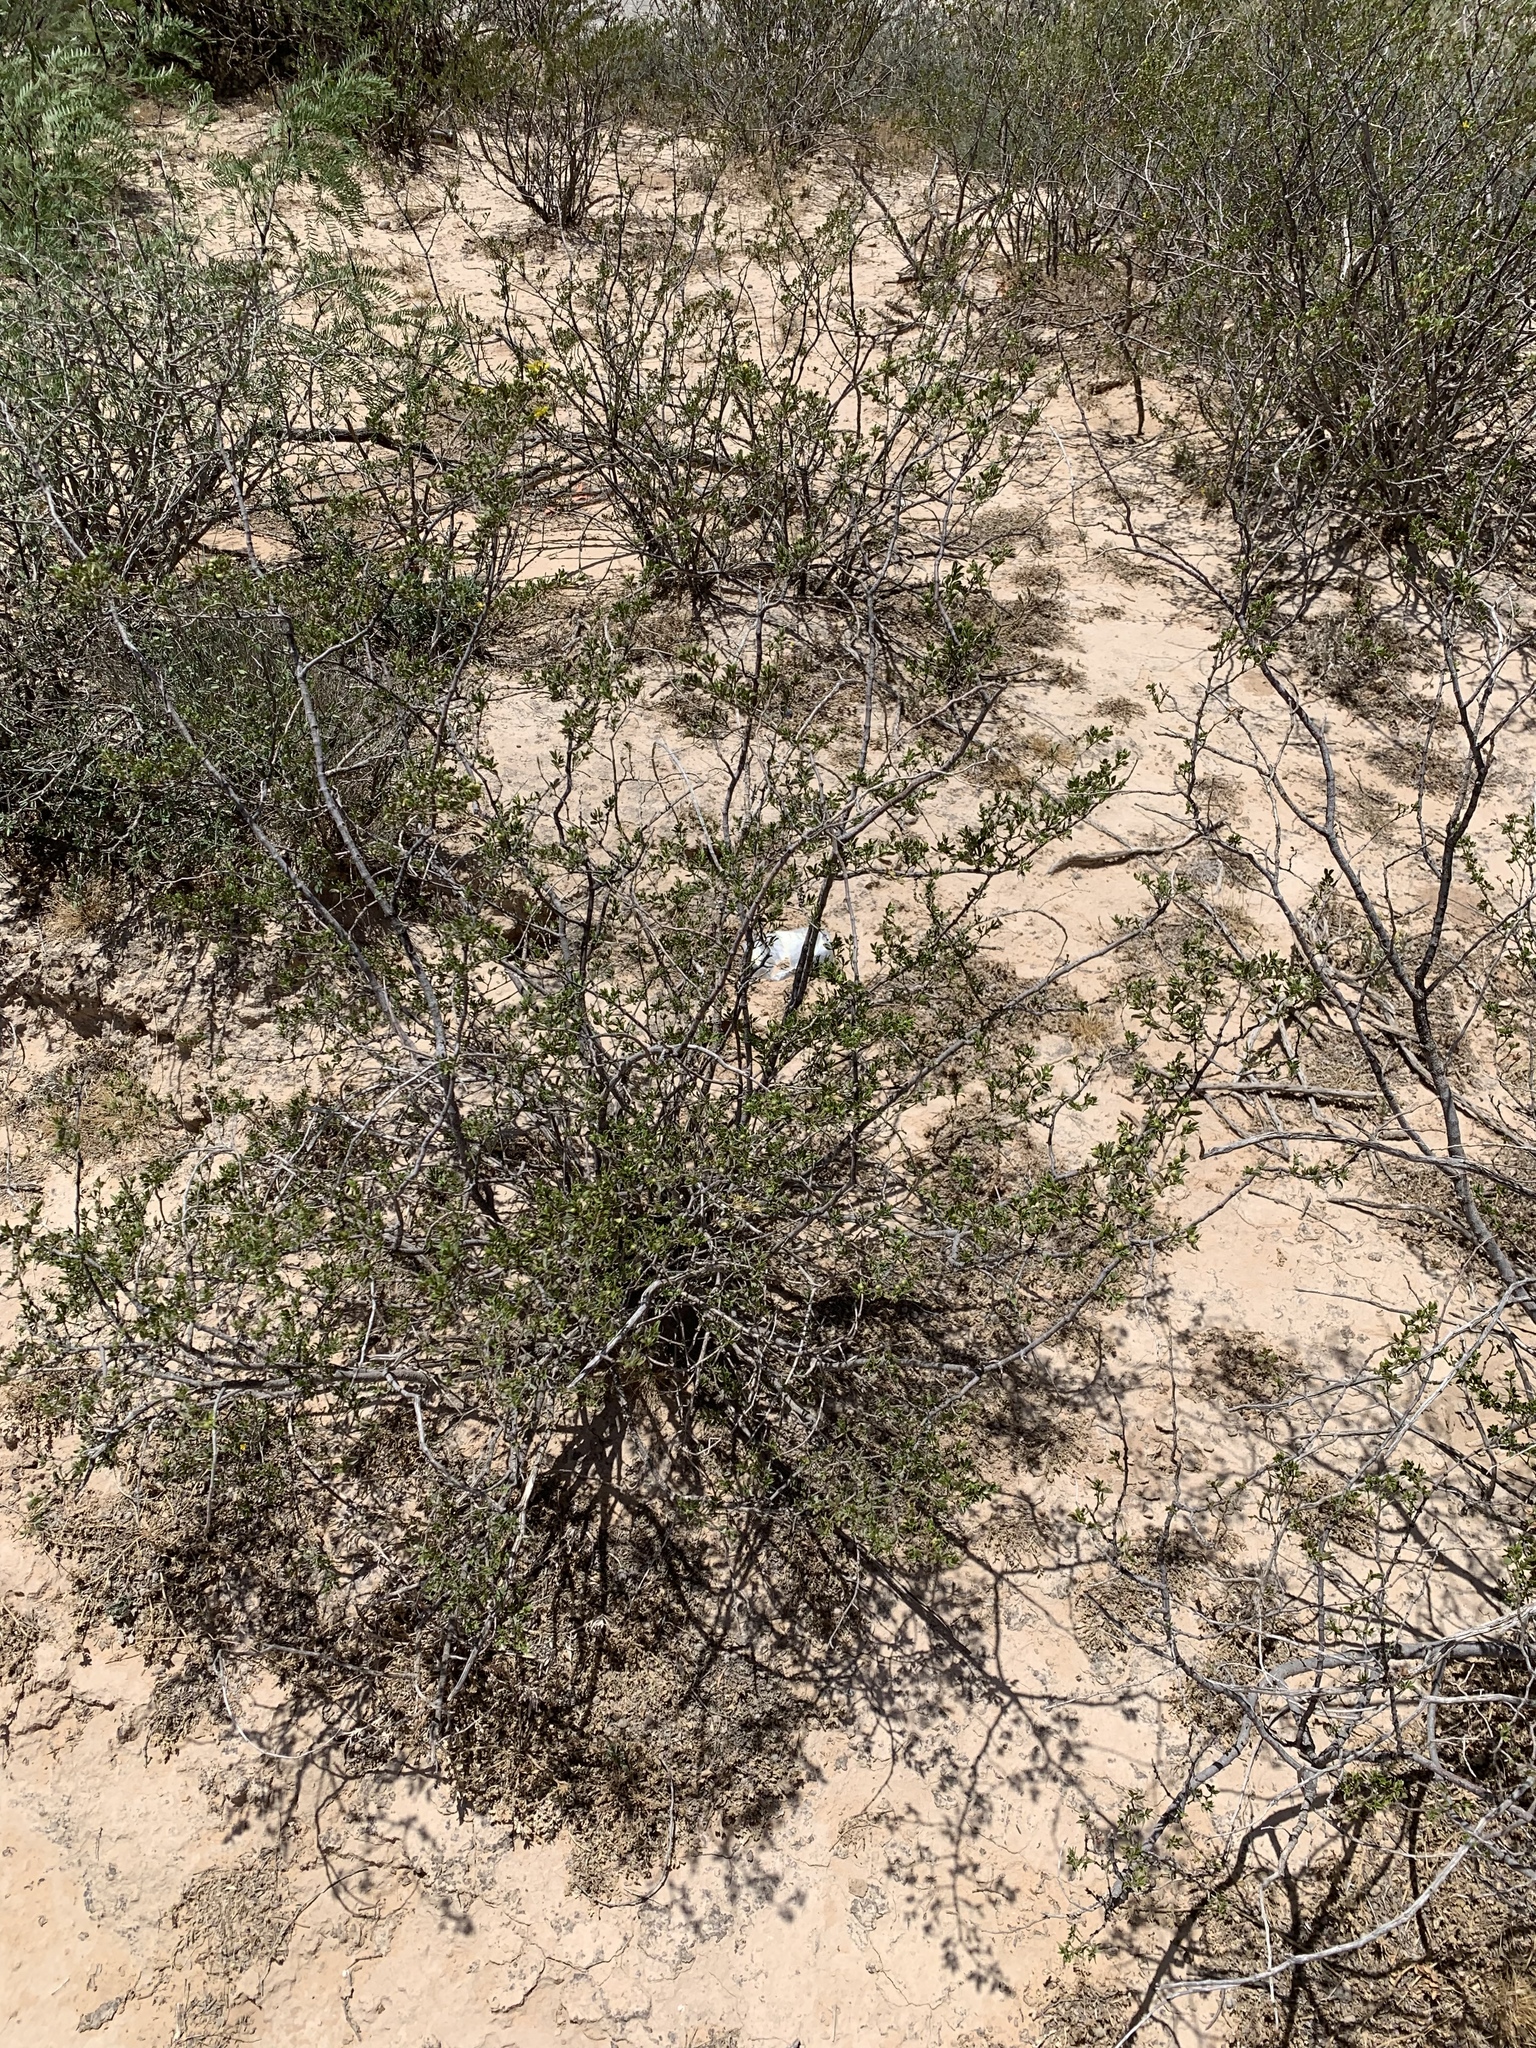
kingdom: Plantae
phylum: Tracheophyta
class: Magnoliopsida
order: Zygophyllales
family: Zygophyllaceae
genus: Larrea
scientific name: Larrea tridentata
